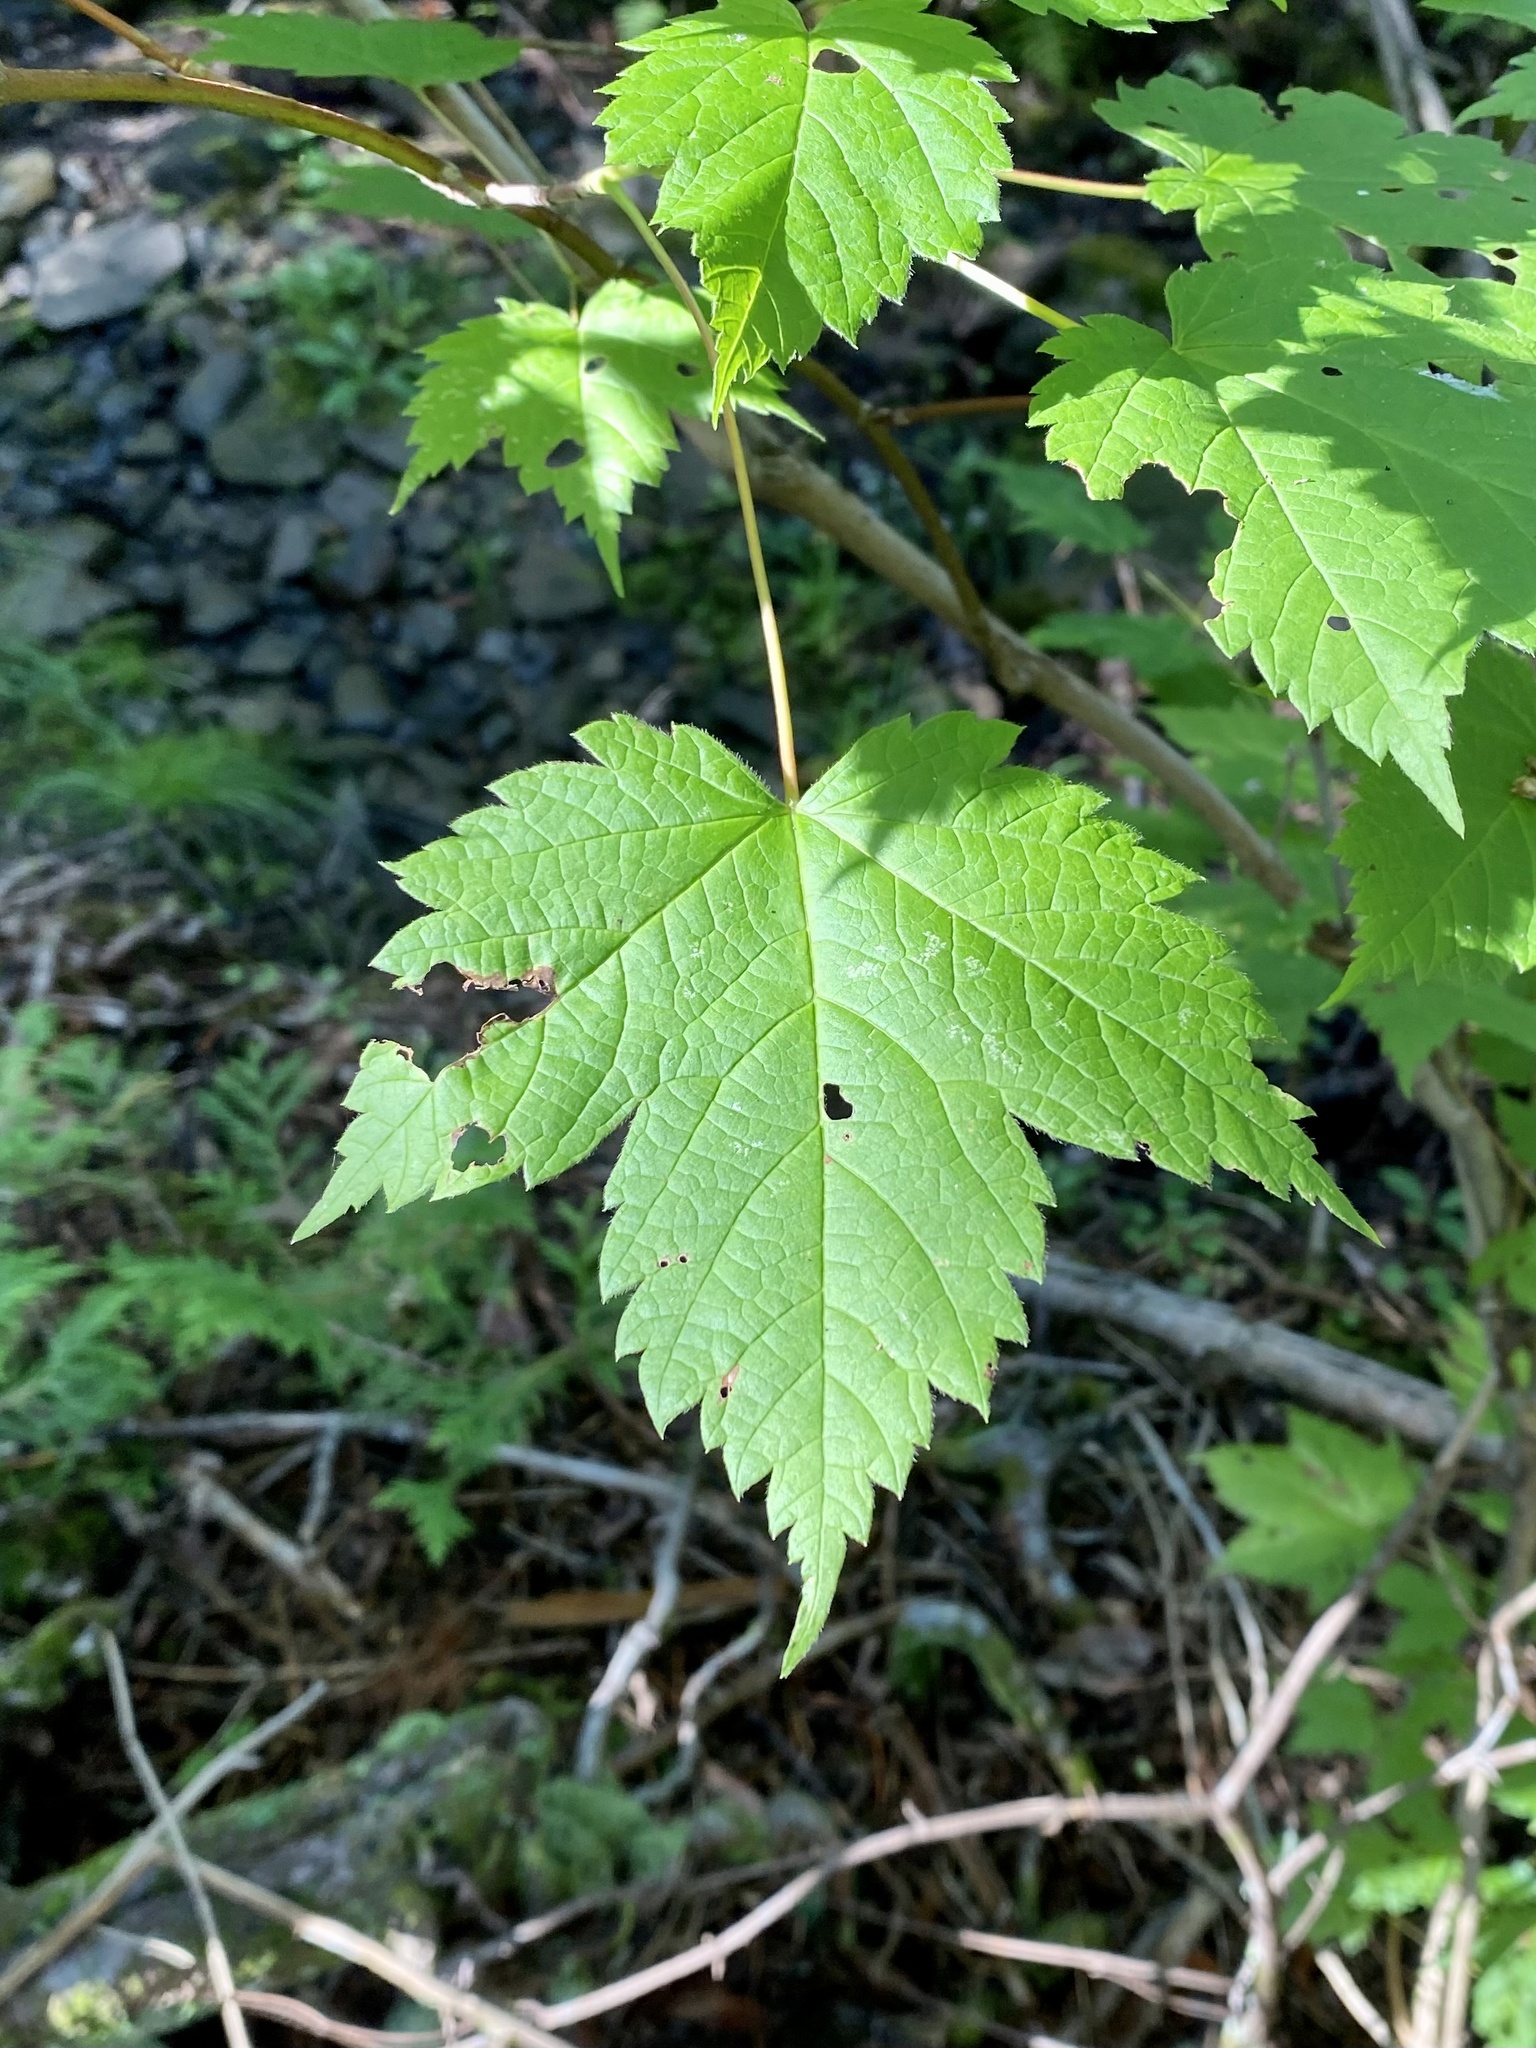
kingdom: Plantae
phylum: Tracheophyta
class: Magnoliopsida
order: Sapindales
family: Sapindaceae
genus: Acer
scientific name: Acer spicatum
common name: Mountain maple
